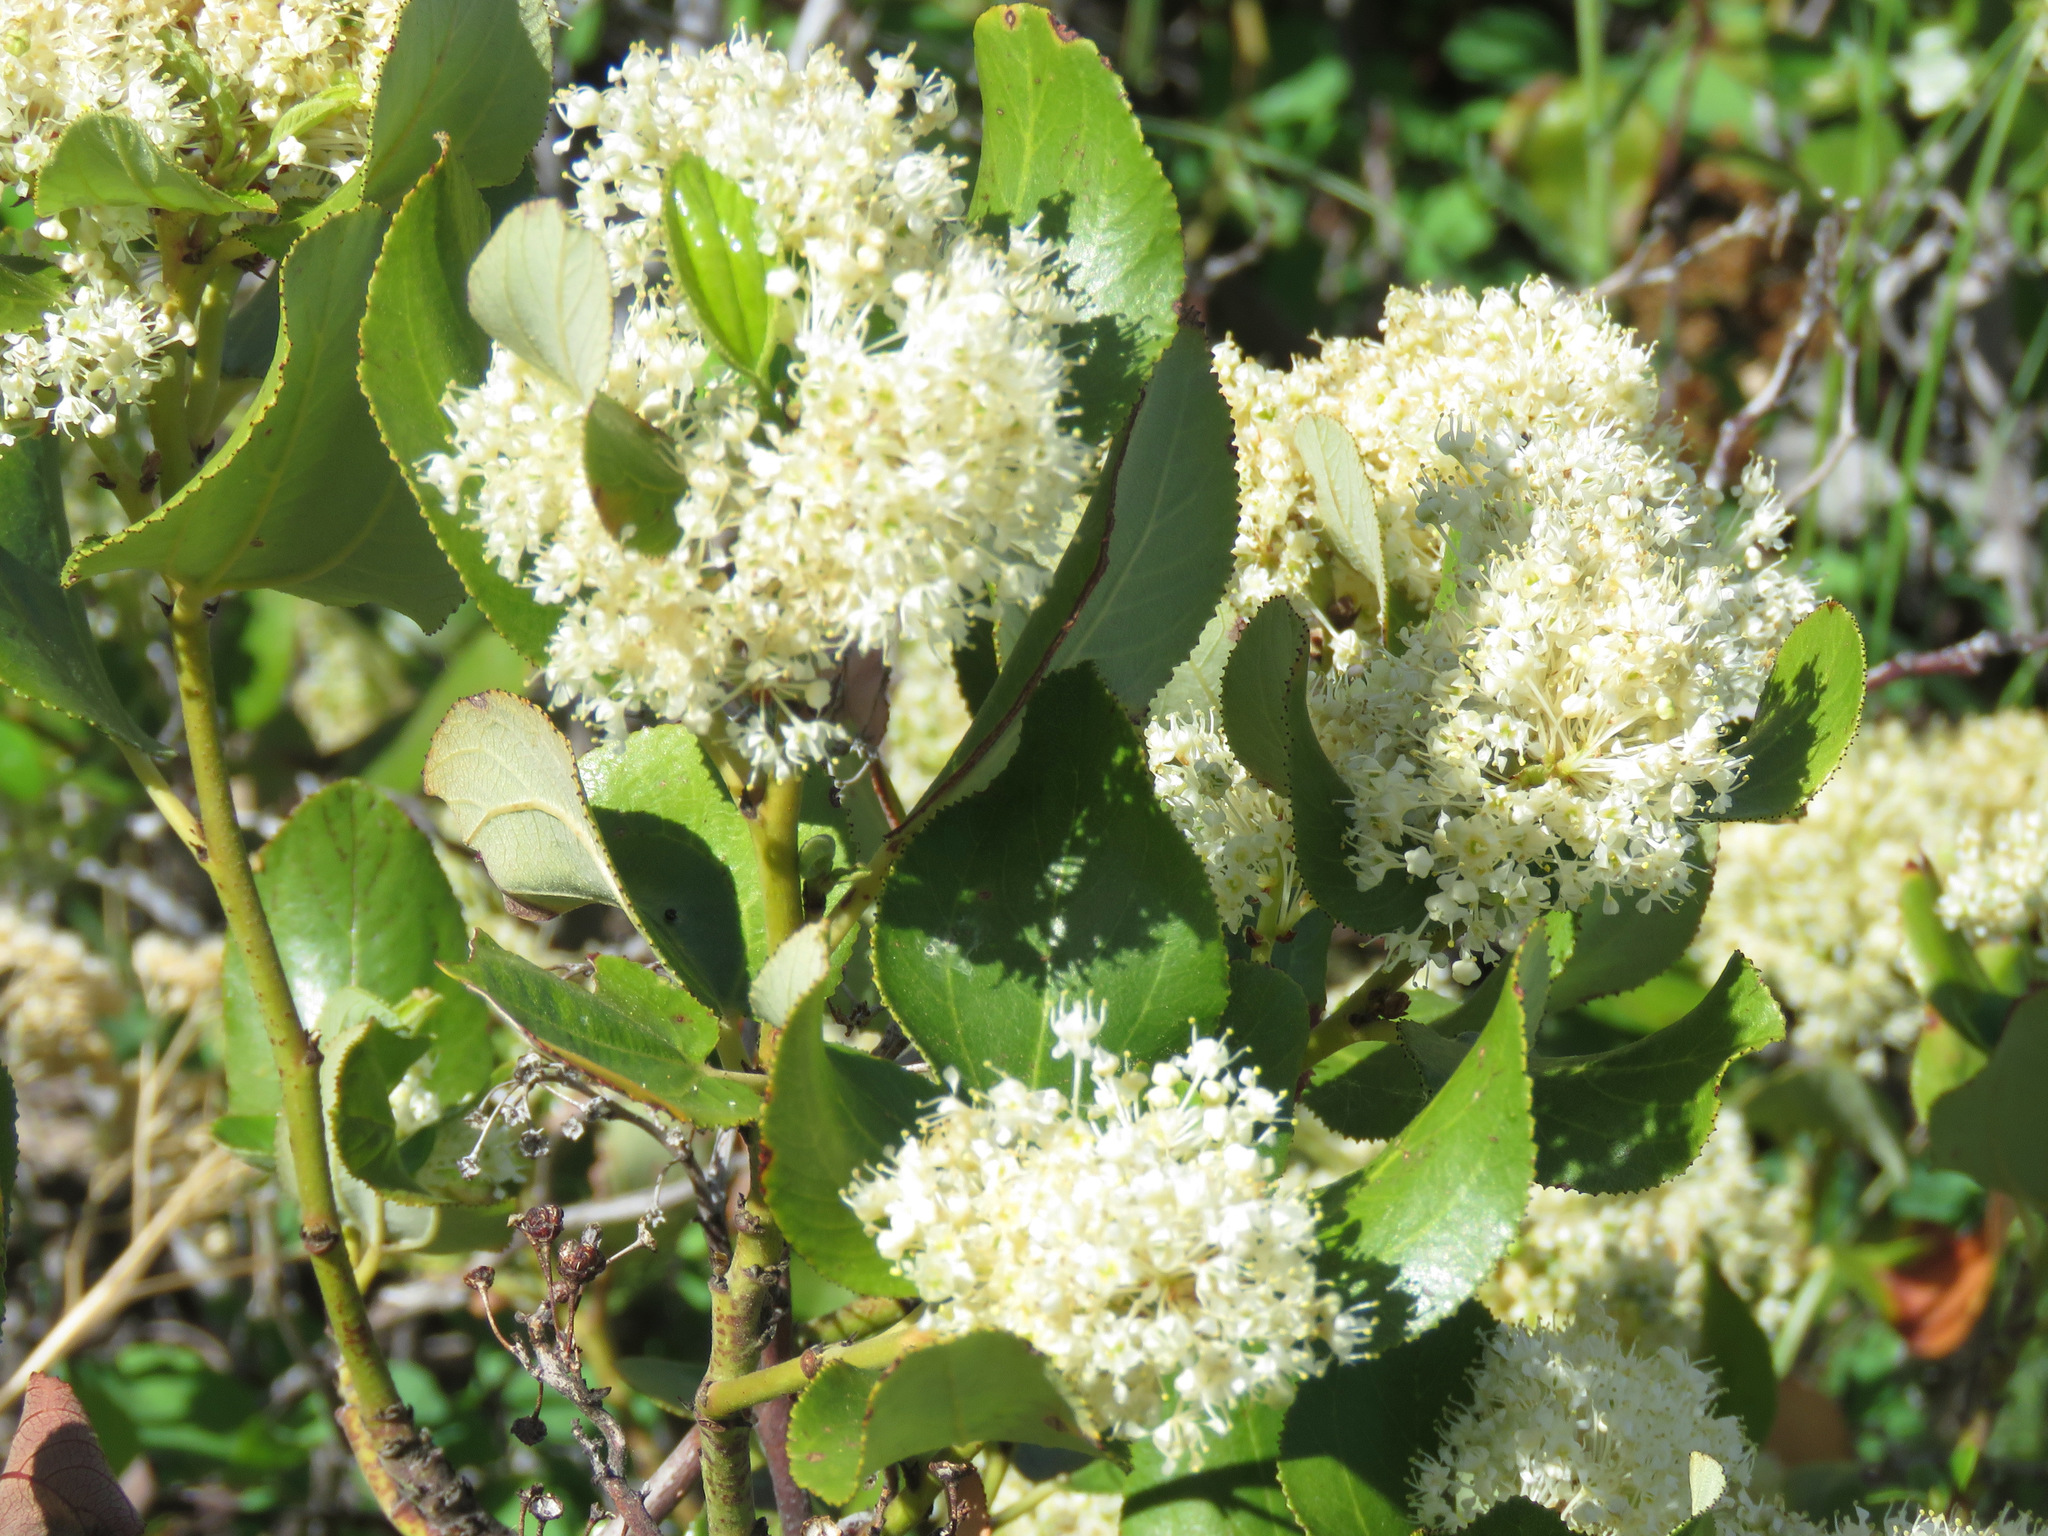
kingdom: Plantae
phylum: Tracheophyta
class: Magnoliopsida
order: Rosales
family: Rhamnaceae
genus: Ceanothus
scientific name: Ceanothus velutinus
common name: Snowbrush
